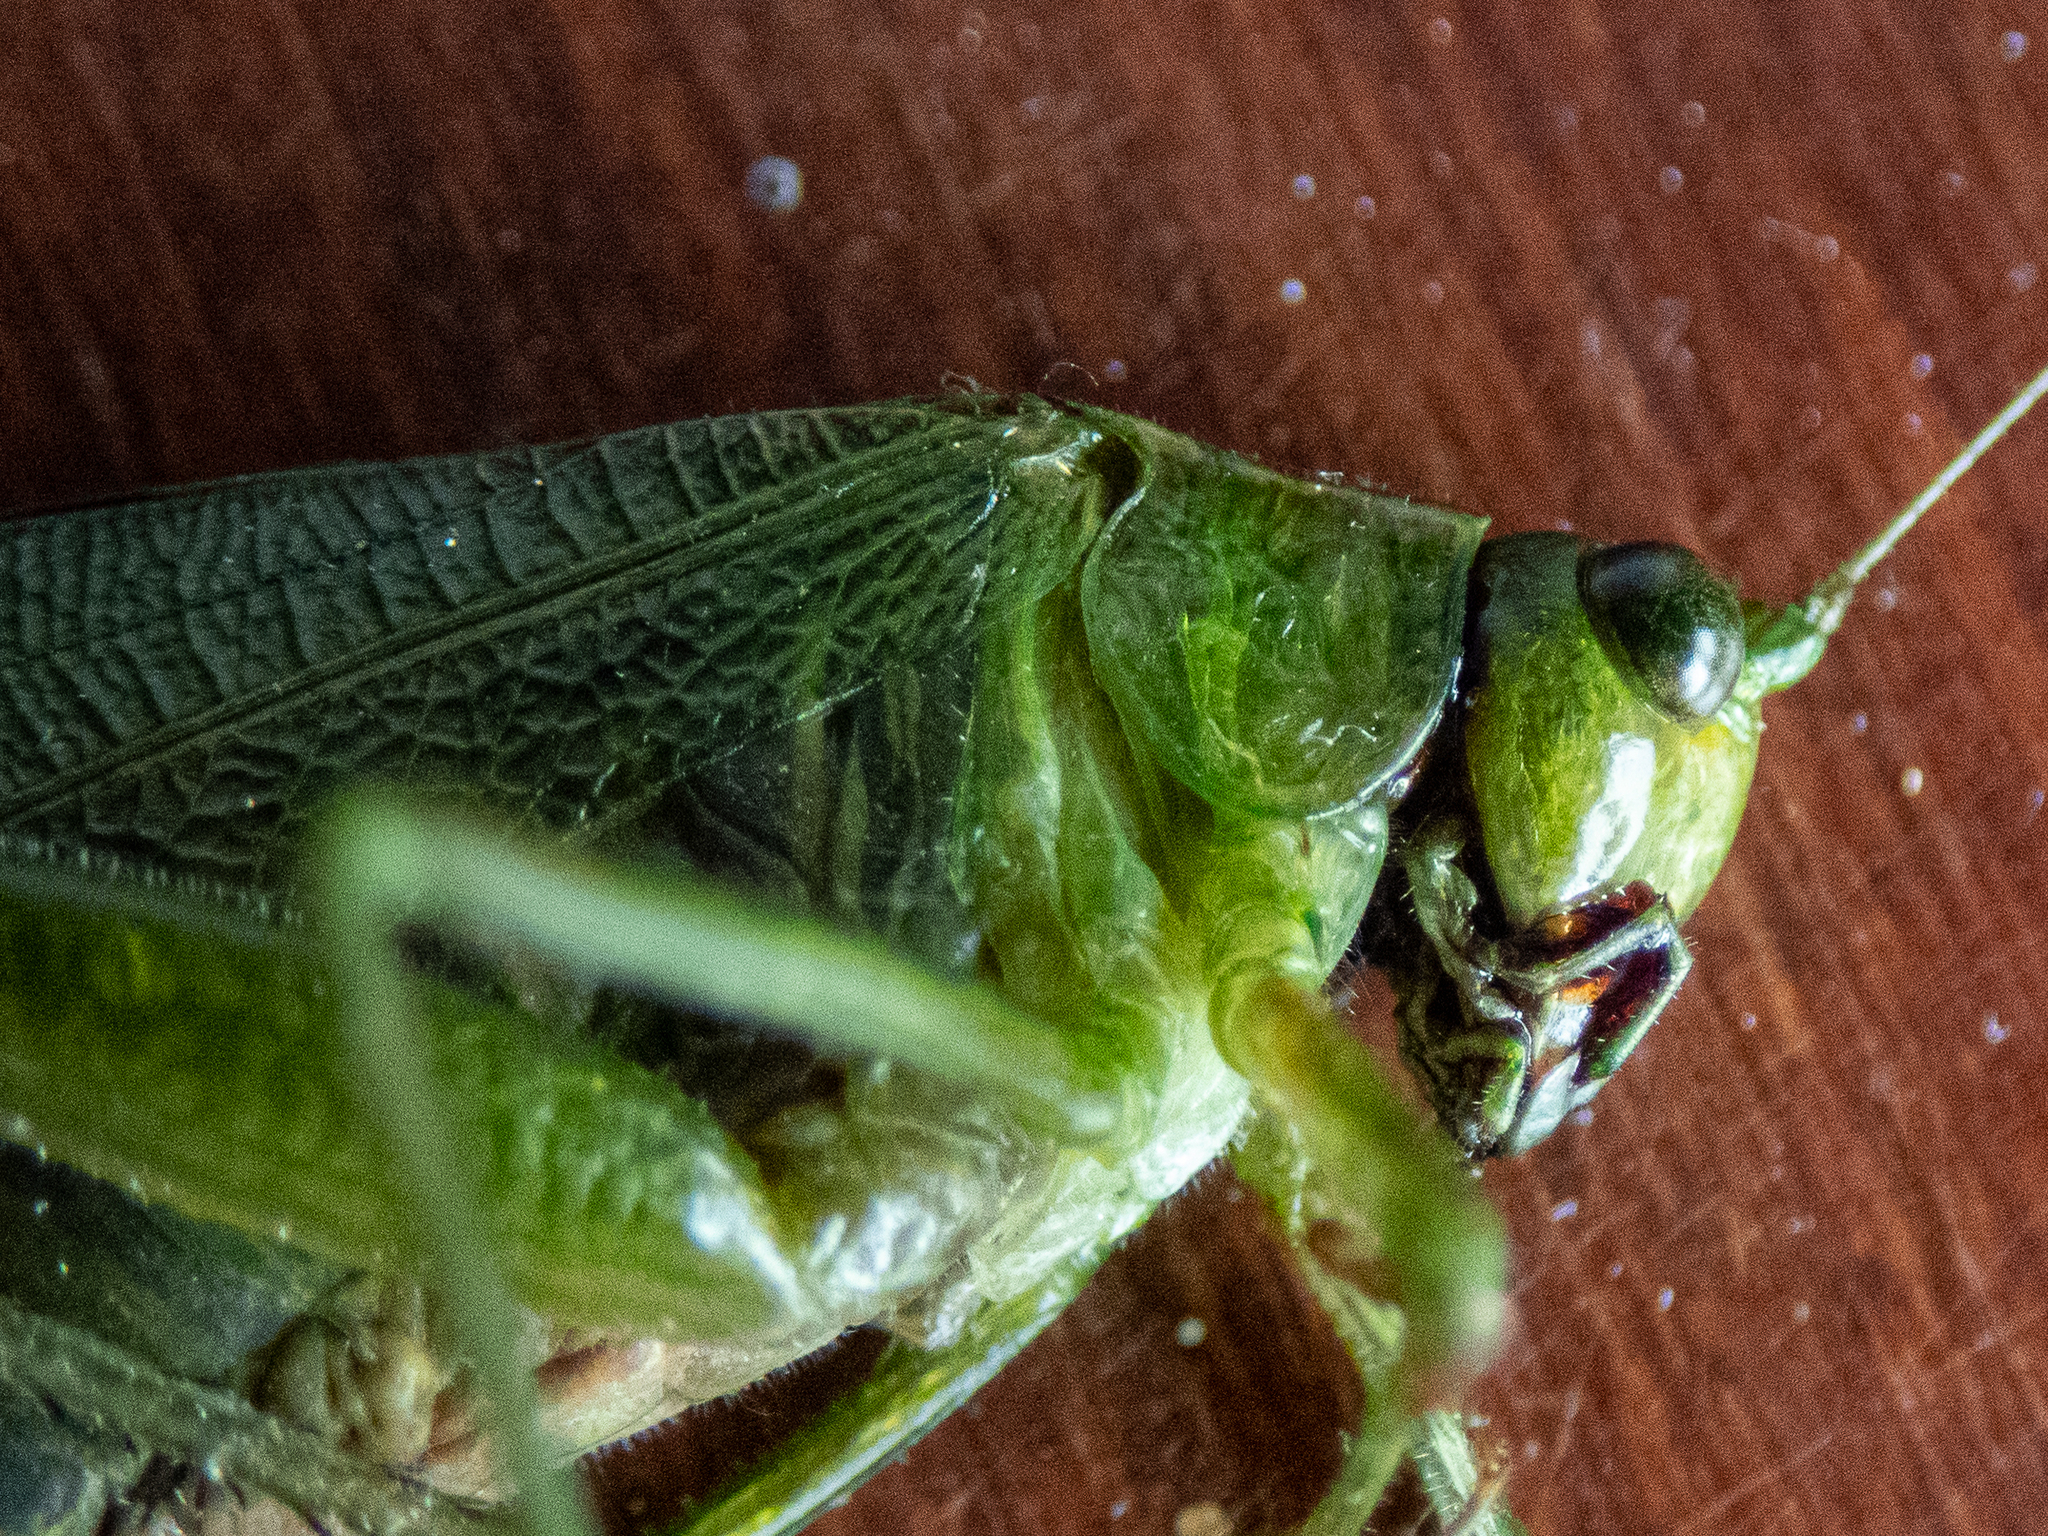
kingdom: Animalia
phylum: Arthropoda
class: Insecta
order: Orthoptera
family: Tettigoniidae
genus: Scudderia
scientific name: Scudderia furcata
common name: Fork-tailed bush katydid
